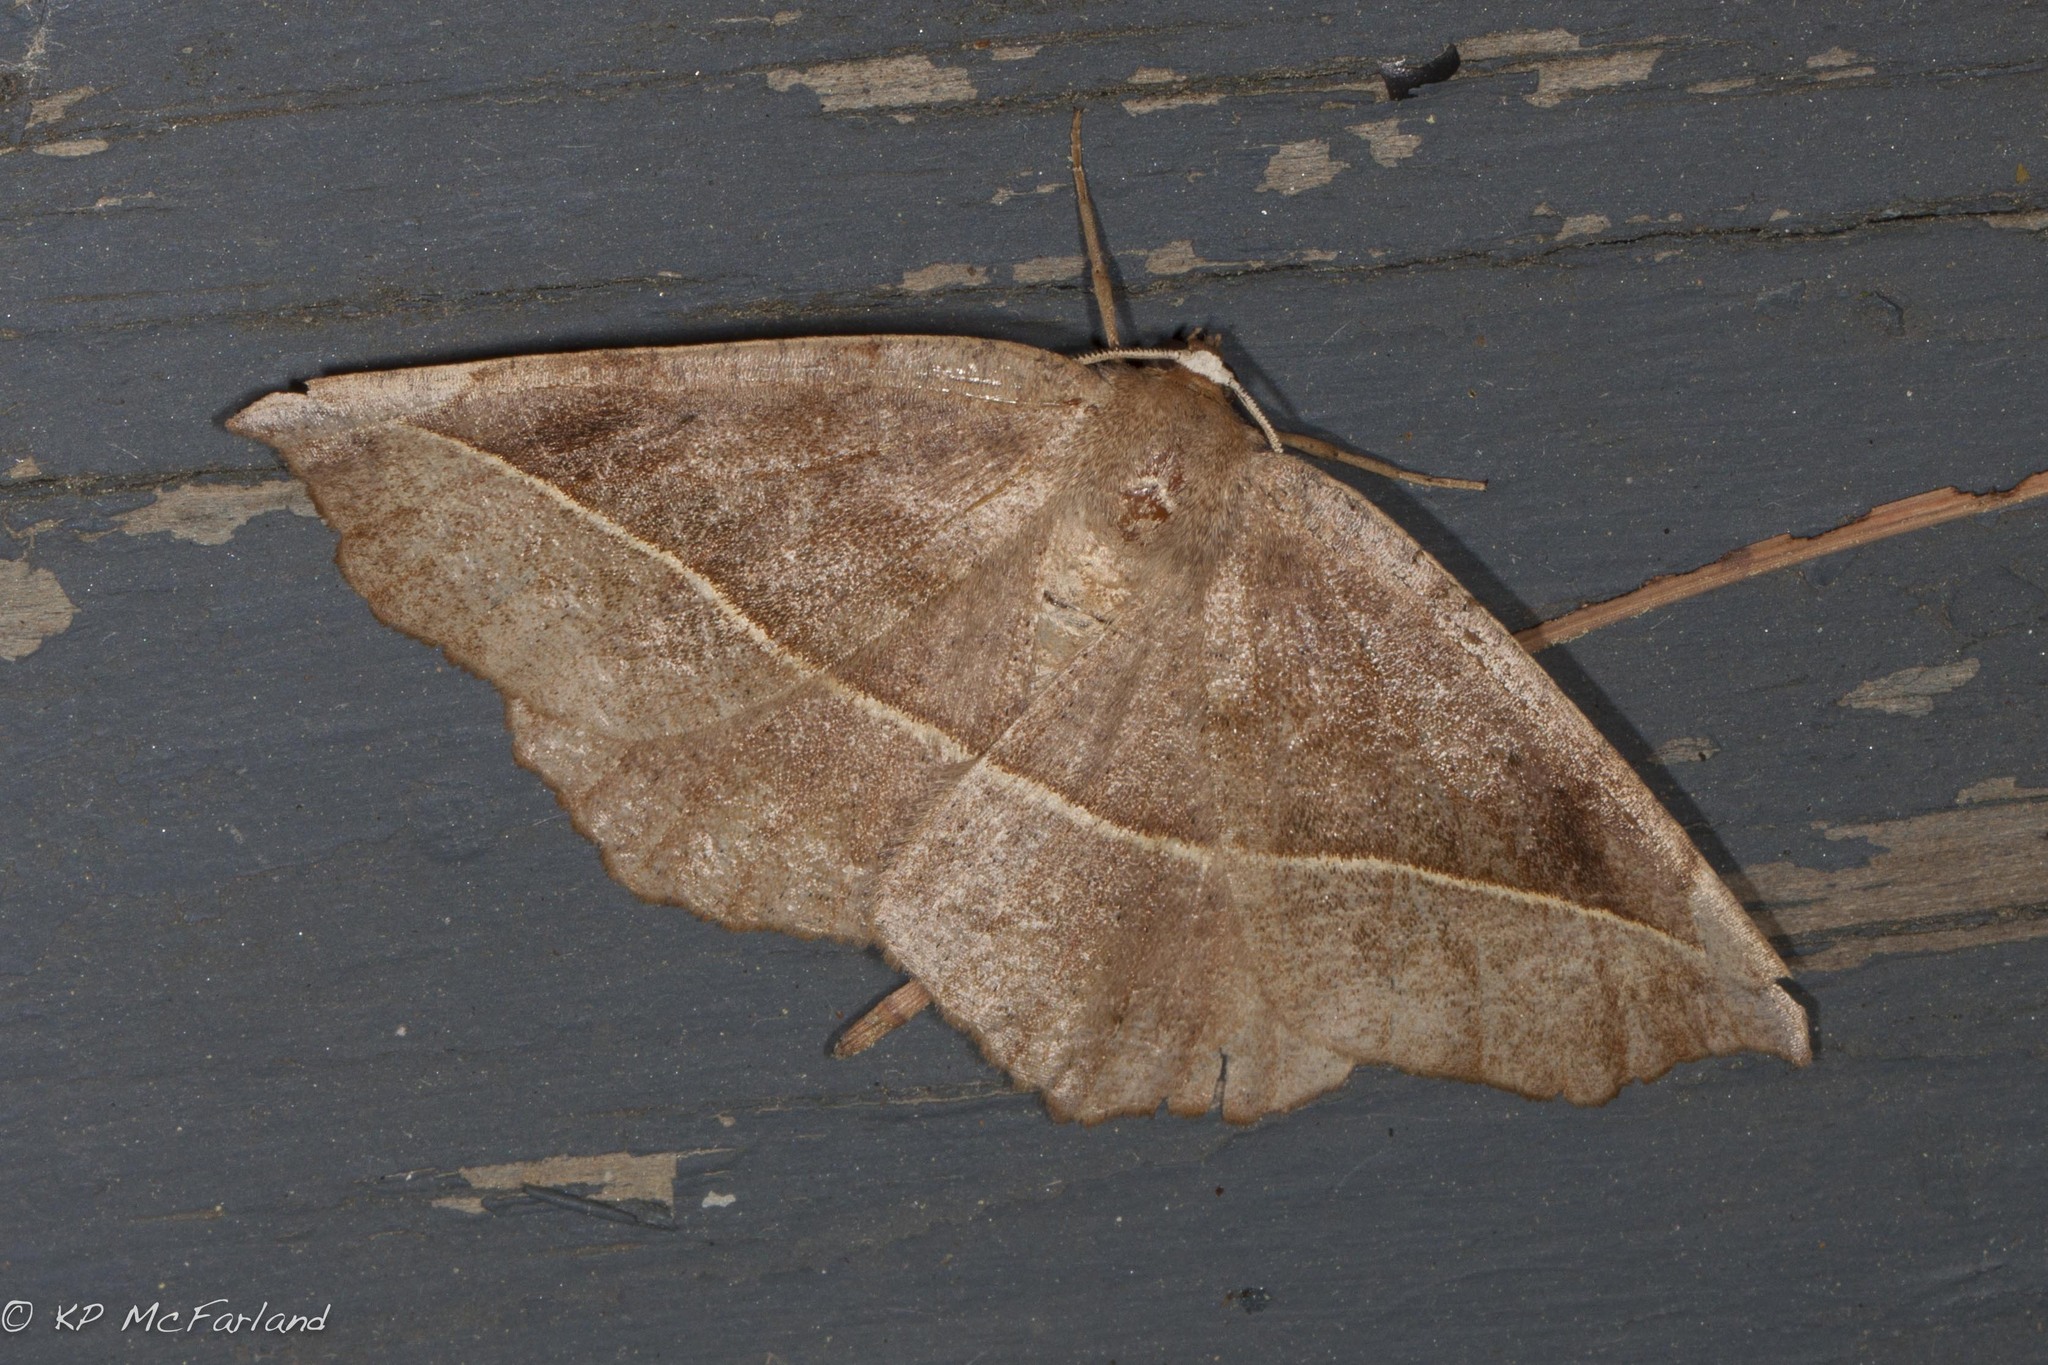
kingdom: Animalia
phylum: Arthropoda
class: Insecta
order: Lepidoptera
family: Geometridae
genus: Eutrapela
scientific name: Eutrapela clemataria
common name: Curved-toothed geometer
